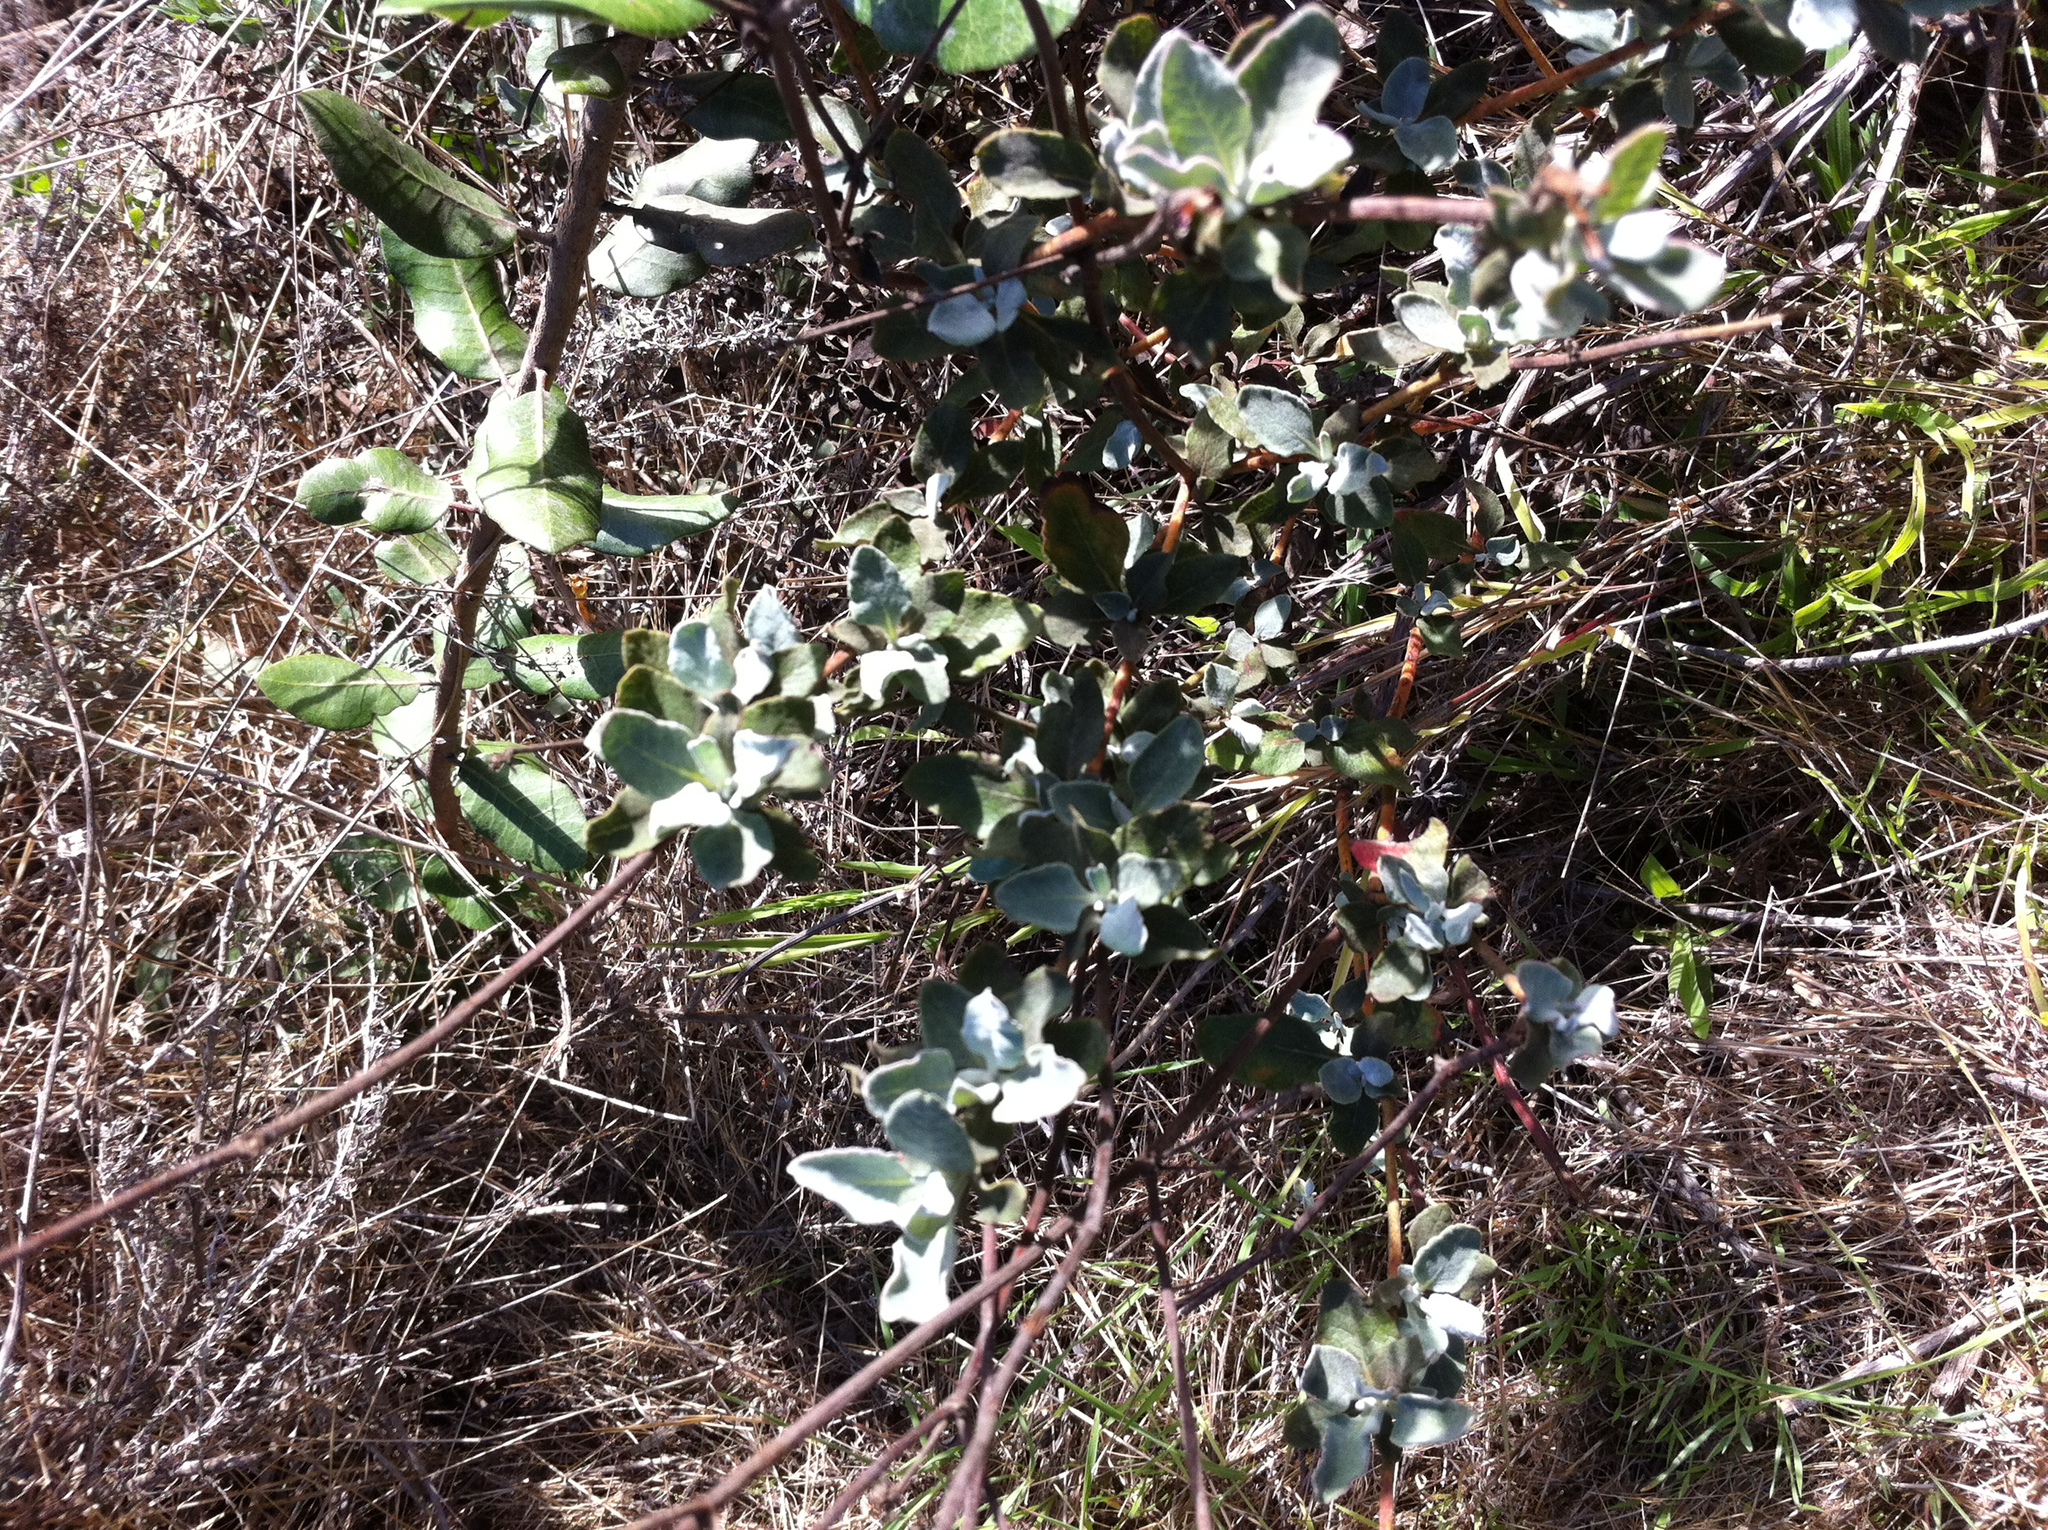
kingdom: Plantae
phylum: Tracheophyta
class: Magnoliopsida
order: Caryophyllales
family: Polygonaceae
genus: Eriogonum
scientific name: Eriogonum cinereum
